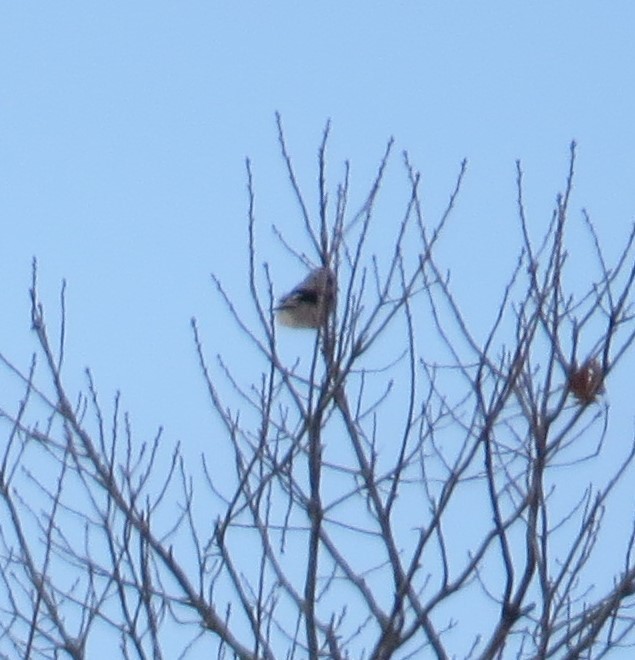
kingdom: Animalia
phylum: Chordata
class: Aves
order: Passeriformes
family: Laniidae
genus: Lanius
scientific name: Lanius borealis
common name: Northern shrike
